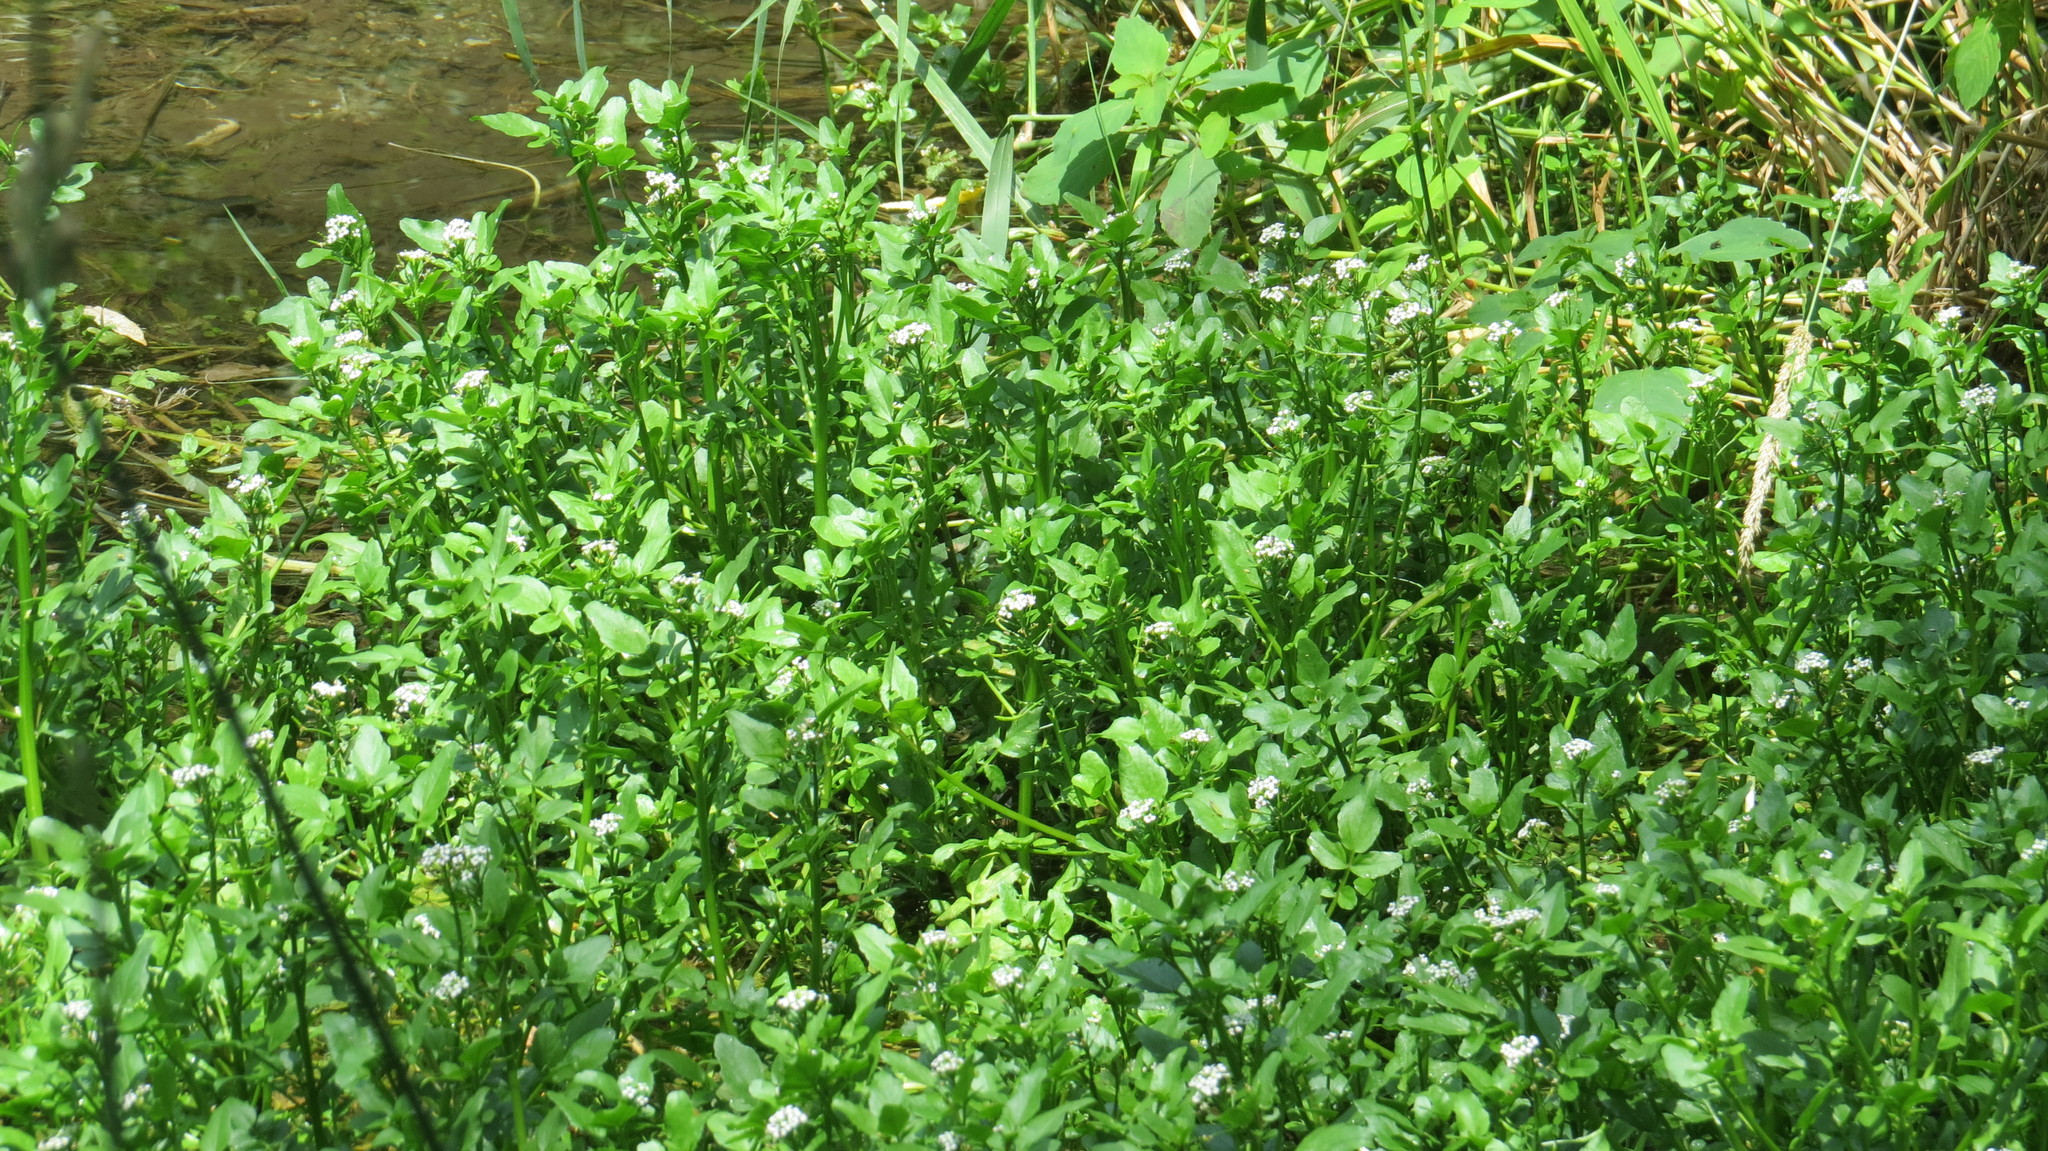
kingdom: Plantae
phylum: Tracheophyta
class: Magnoliopsida
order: Brassicales
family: Brassicaceae
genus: Nasturtium
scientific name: Nasturtium officinale
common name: Watercress
